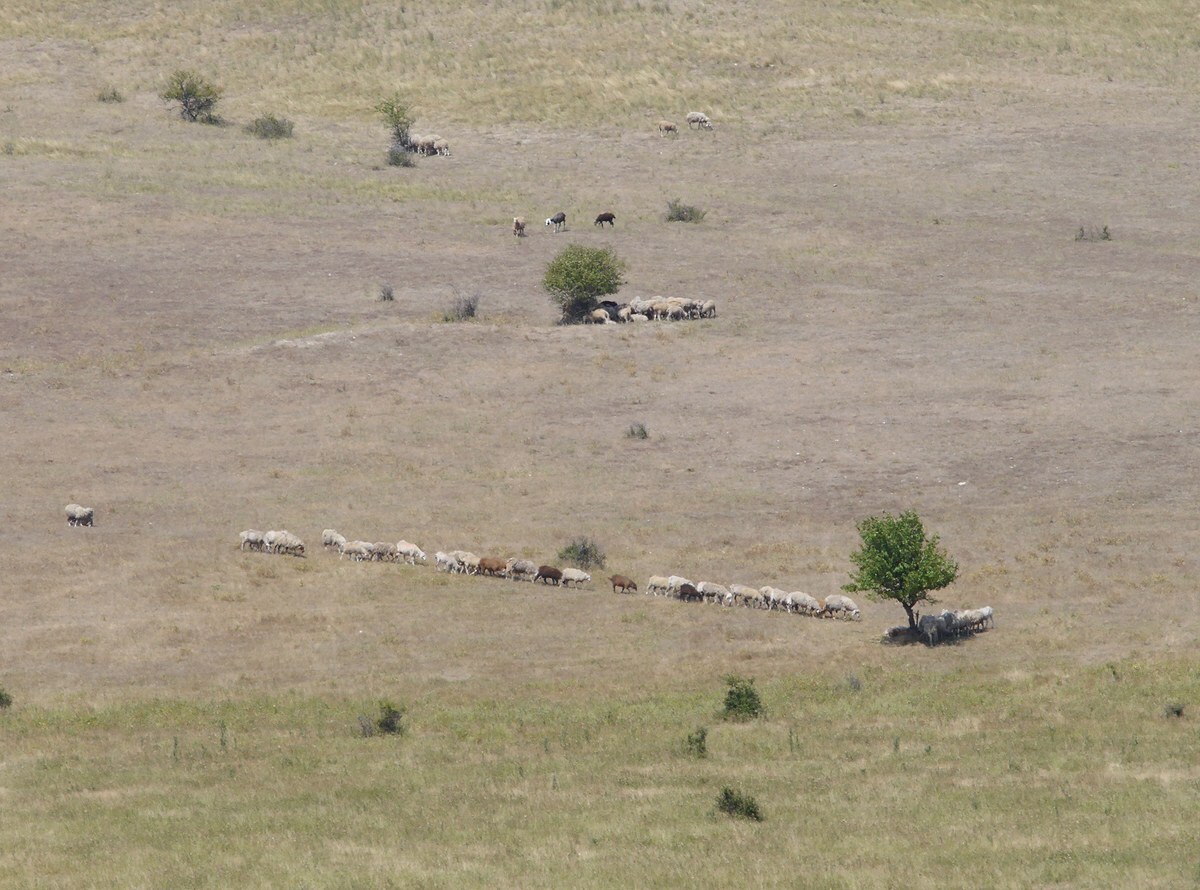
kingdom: Animalia
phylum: Chordata
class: Mammalia
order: Artiodactyla
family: Bovidae
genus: Ovis
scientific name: Ovis aries
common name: Domestic sheep
